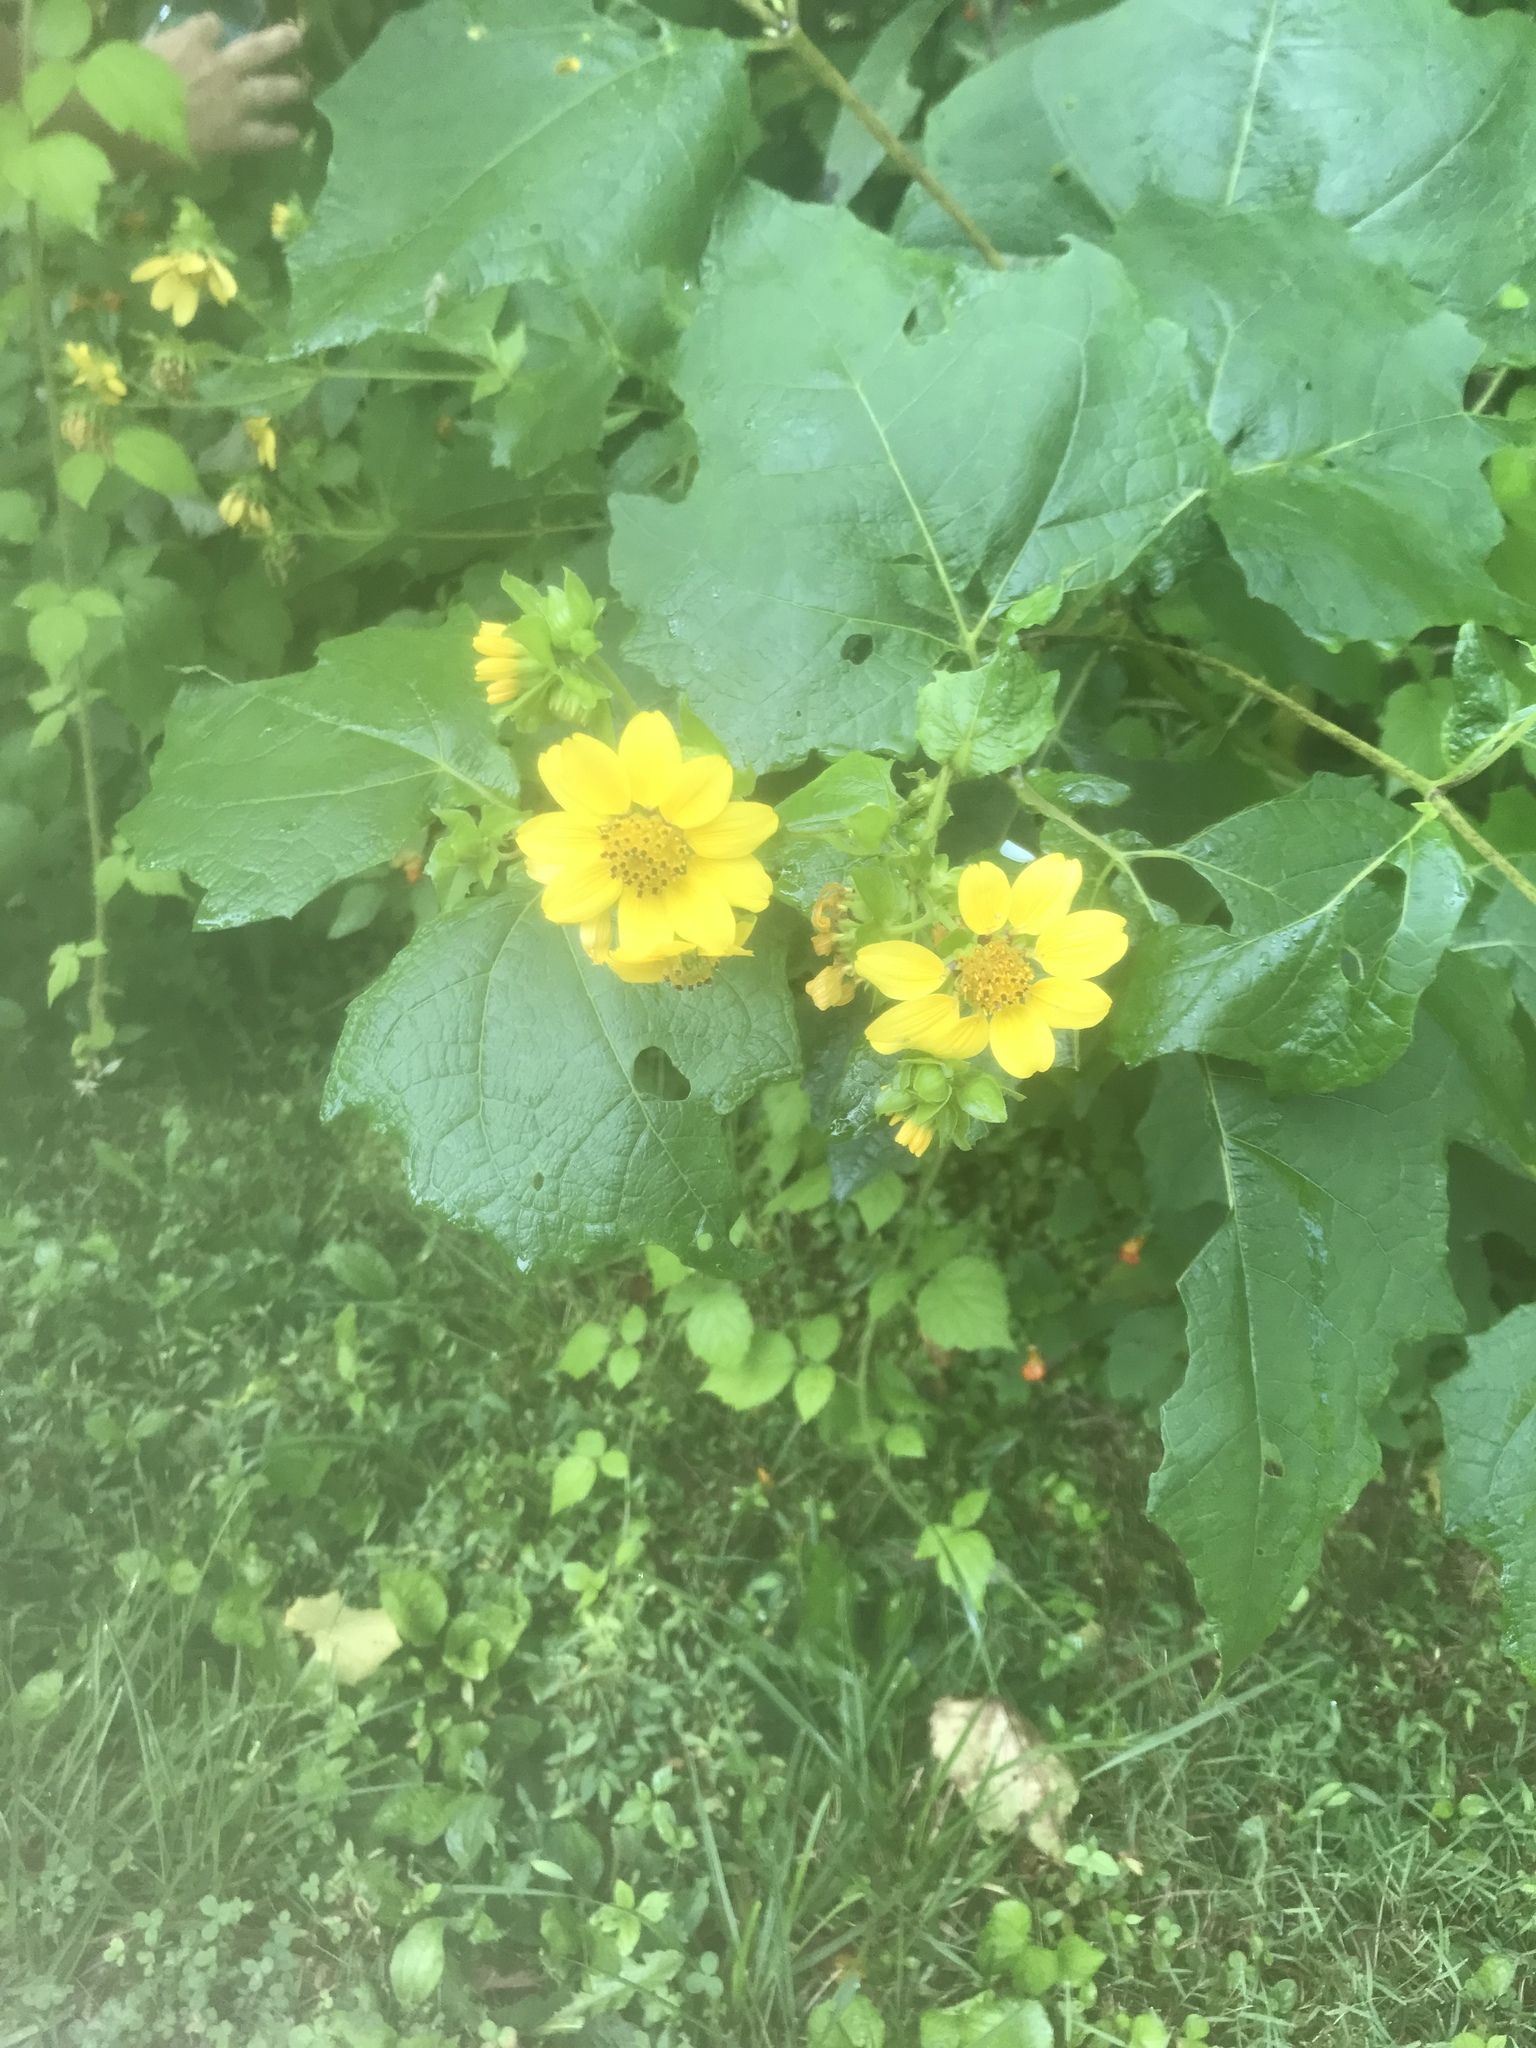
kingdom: Plantae
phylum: Tracheophyta
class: Magnoliopsida
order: Asterales
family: Asteraceae
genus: Smallanthus
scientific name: Smallanthus uvedalia
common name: Bear's-foot
